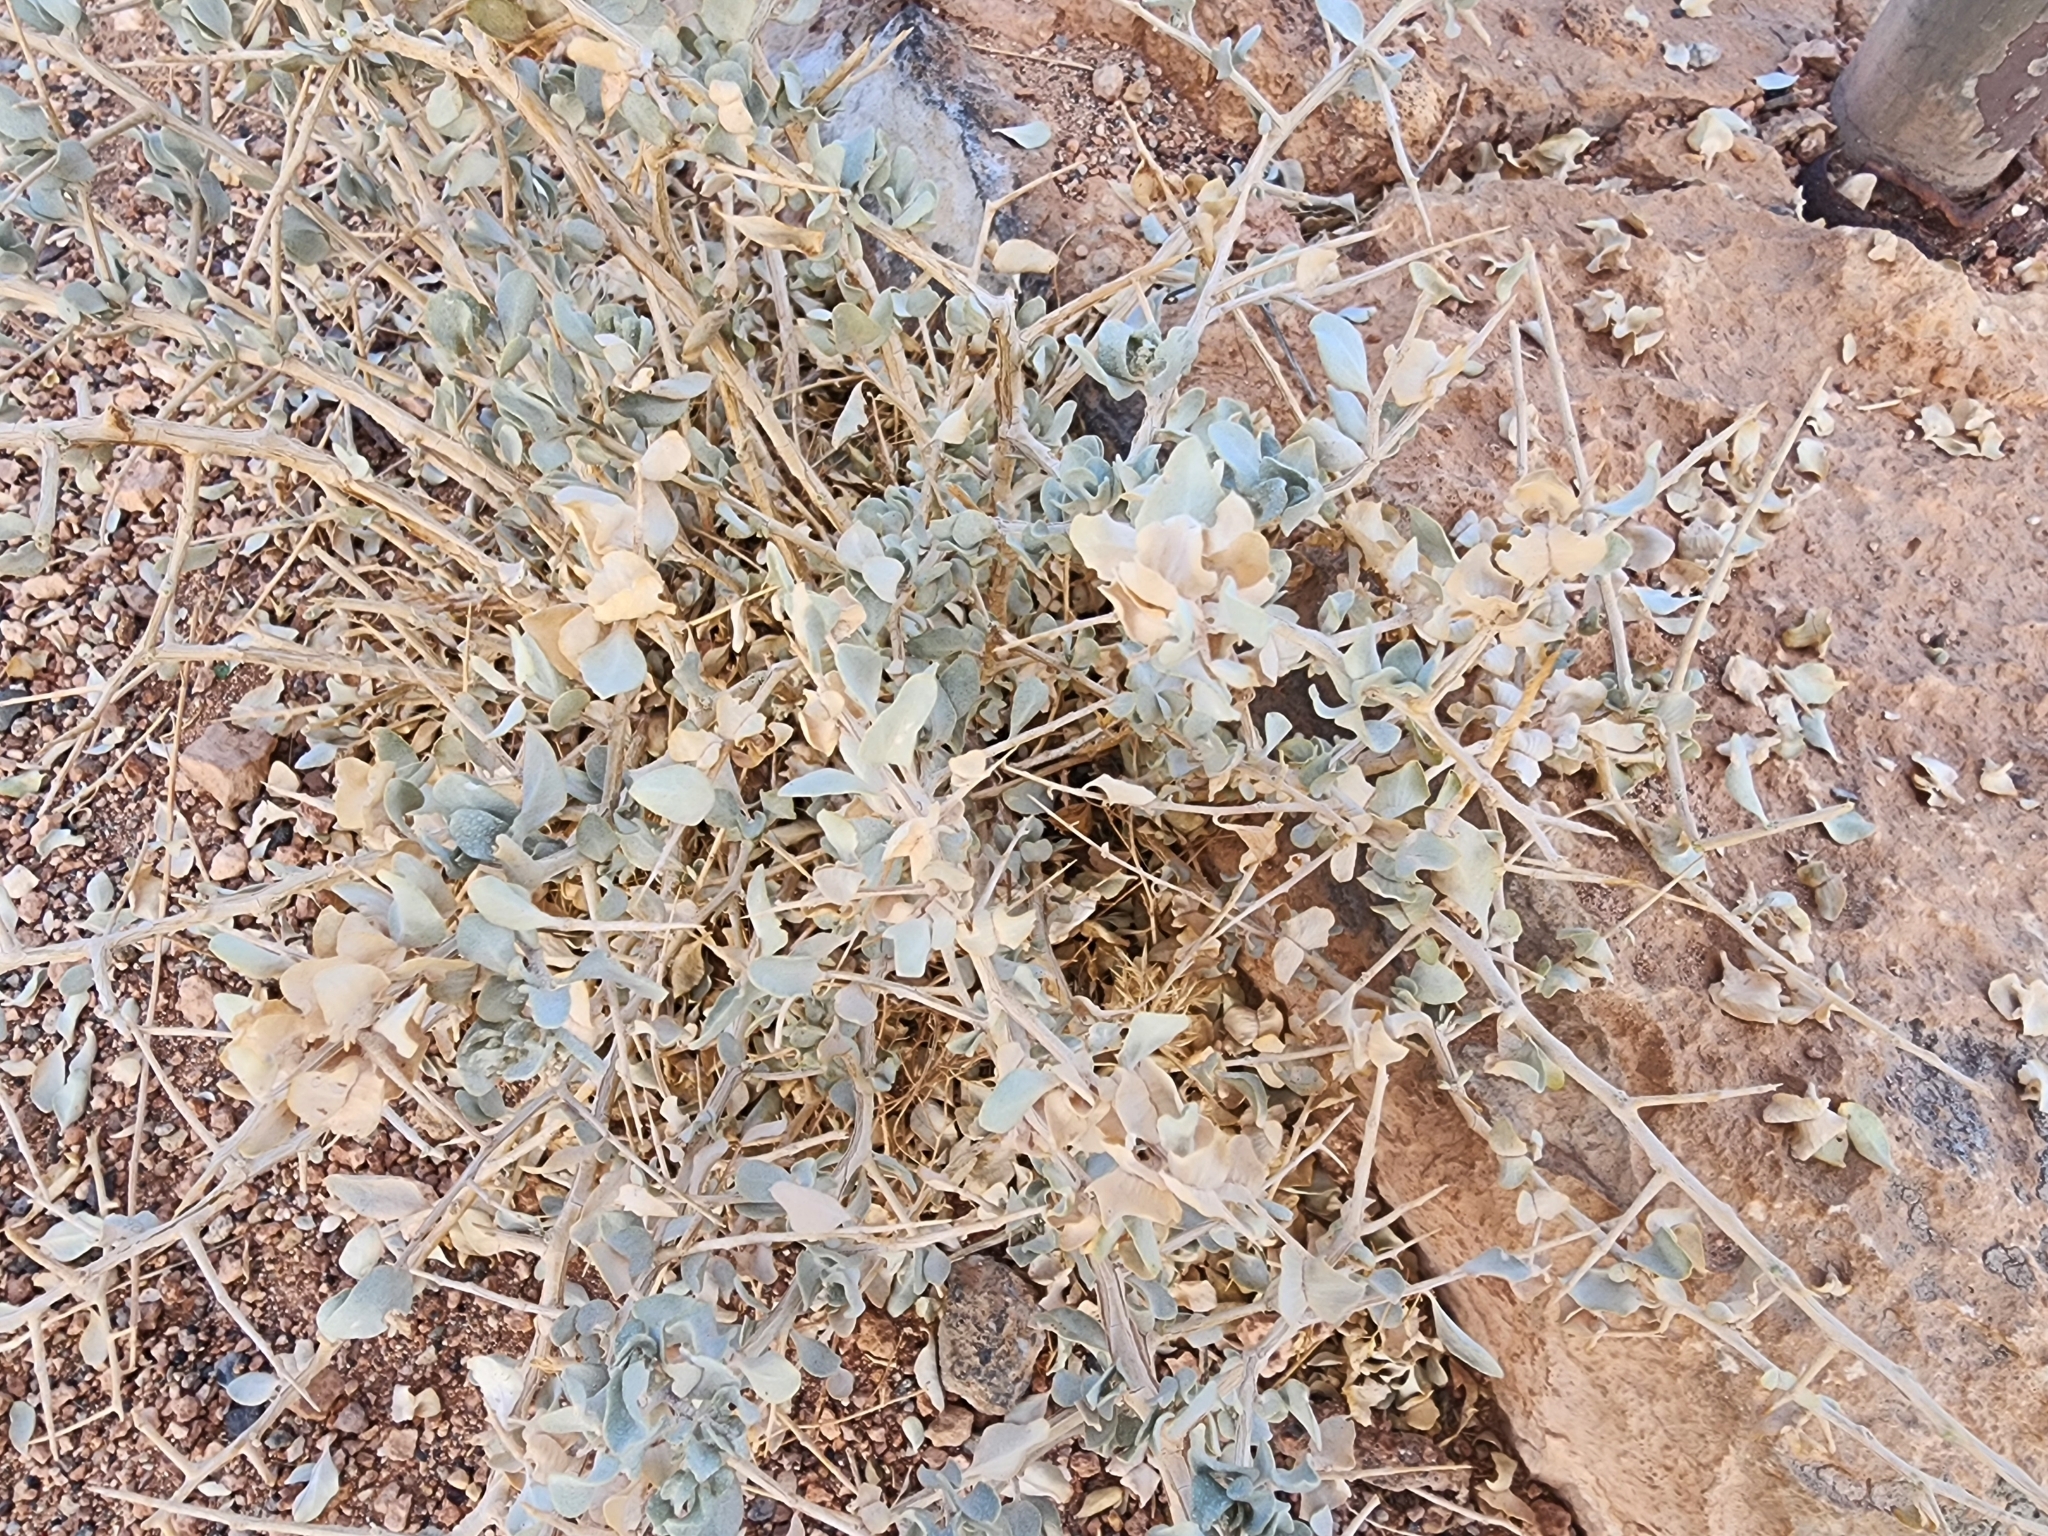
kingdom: Plantae
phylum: Tracheophyta
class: Magnoliopsida
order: Caryophyllales
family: Amaranthaceae
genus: Atriplex
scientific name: Atriplex confertifolia
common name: Shadscale
